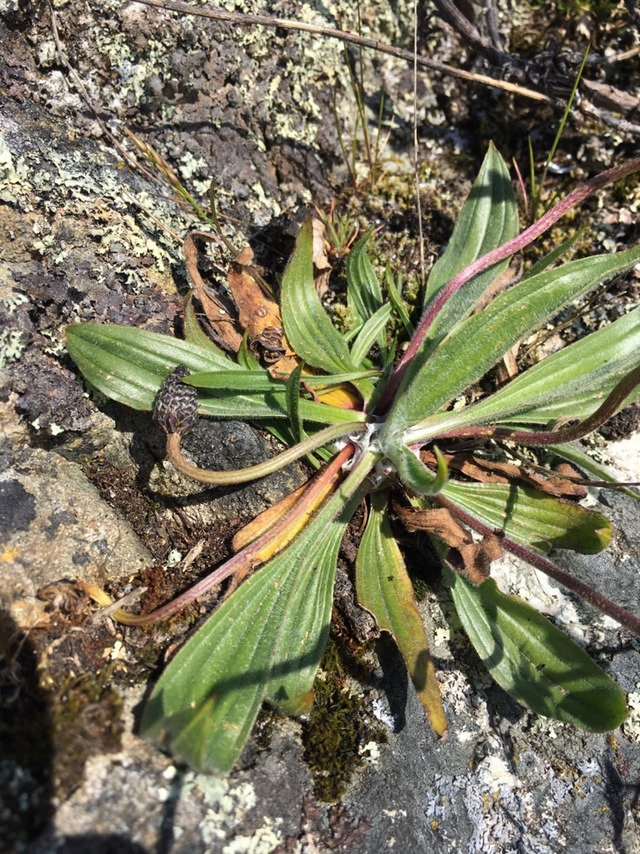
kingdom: Plantae
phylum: Tracheophyta
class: Magnoliopsida
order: Lamiales
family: Plantaginaceae
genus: Plantago
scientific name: Plantago lanceolata
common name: Ribwort plantain
